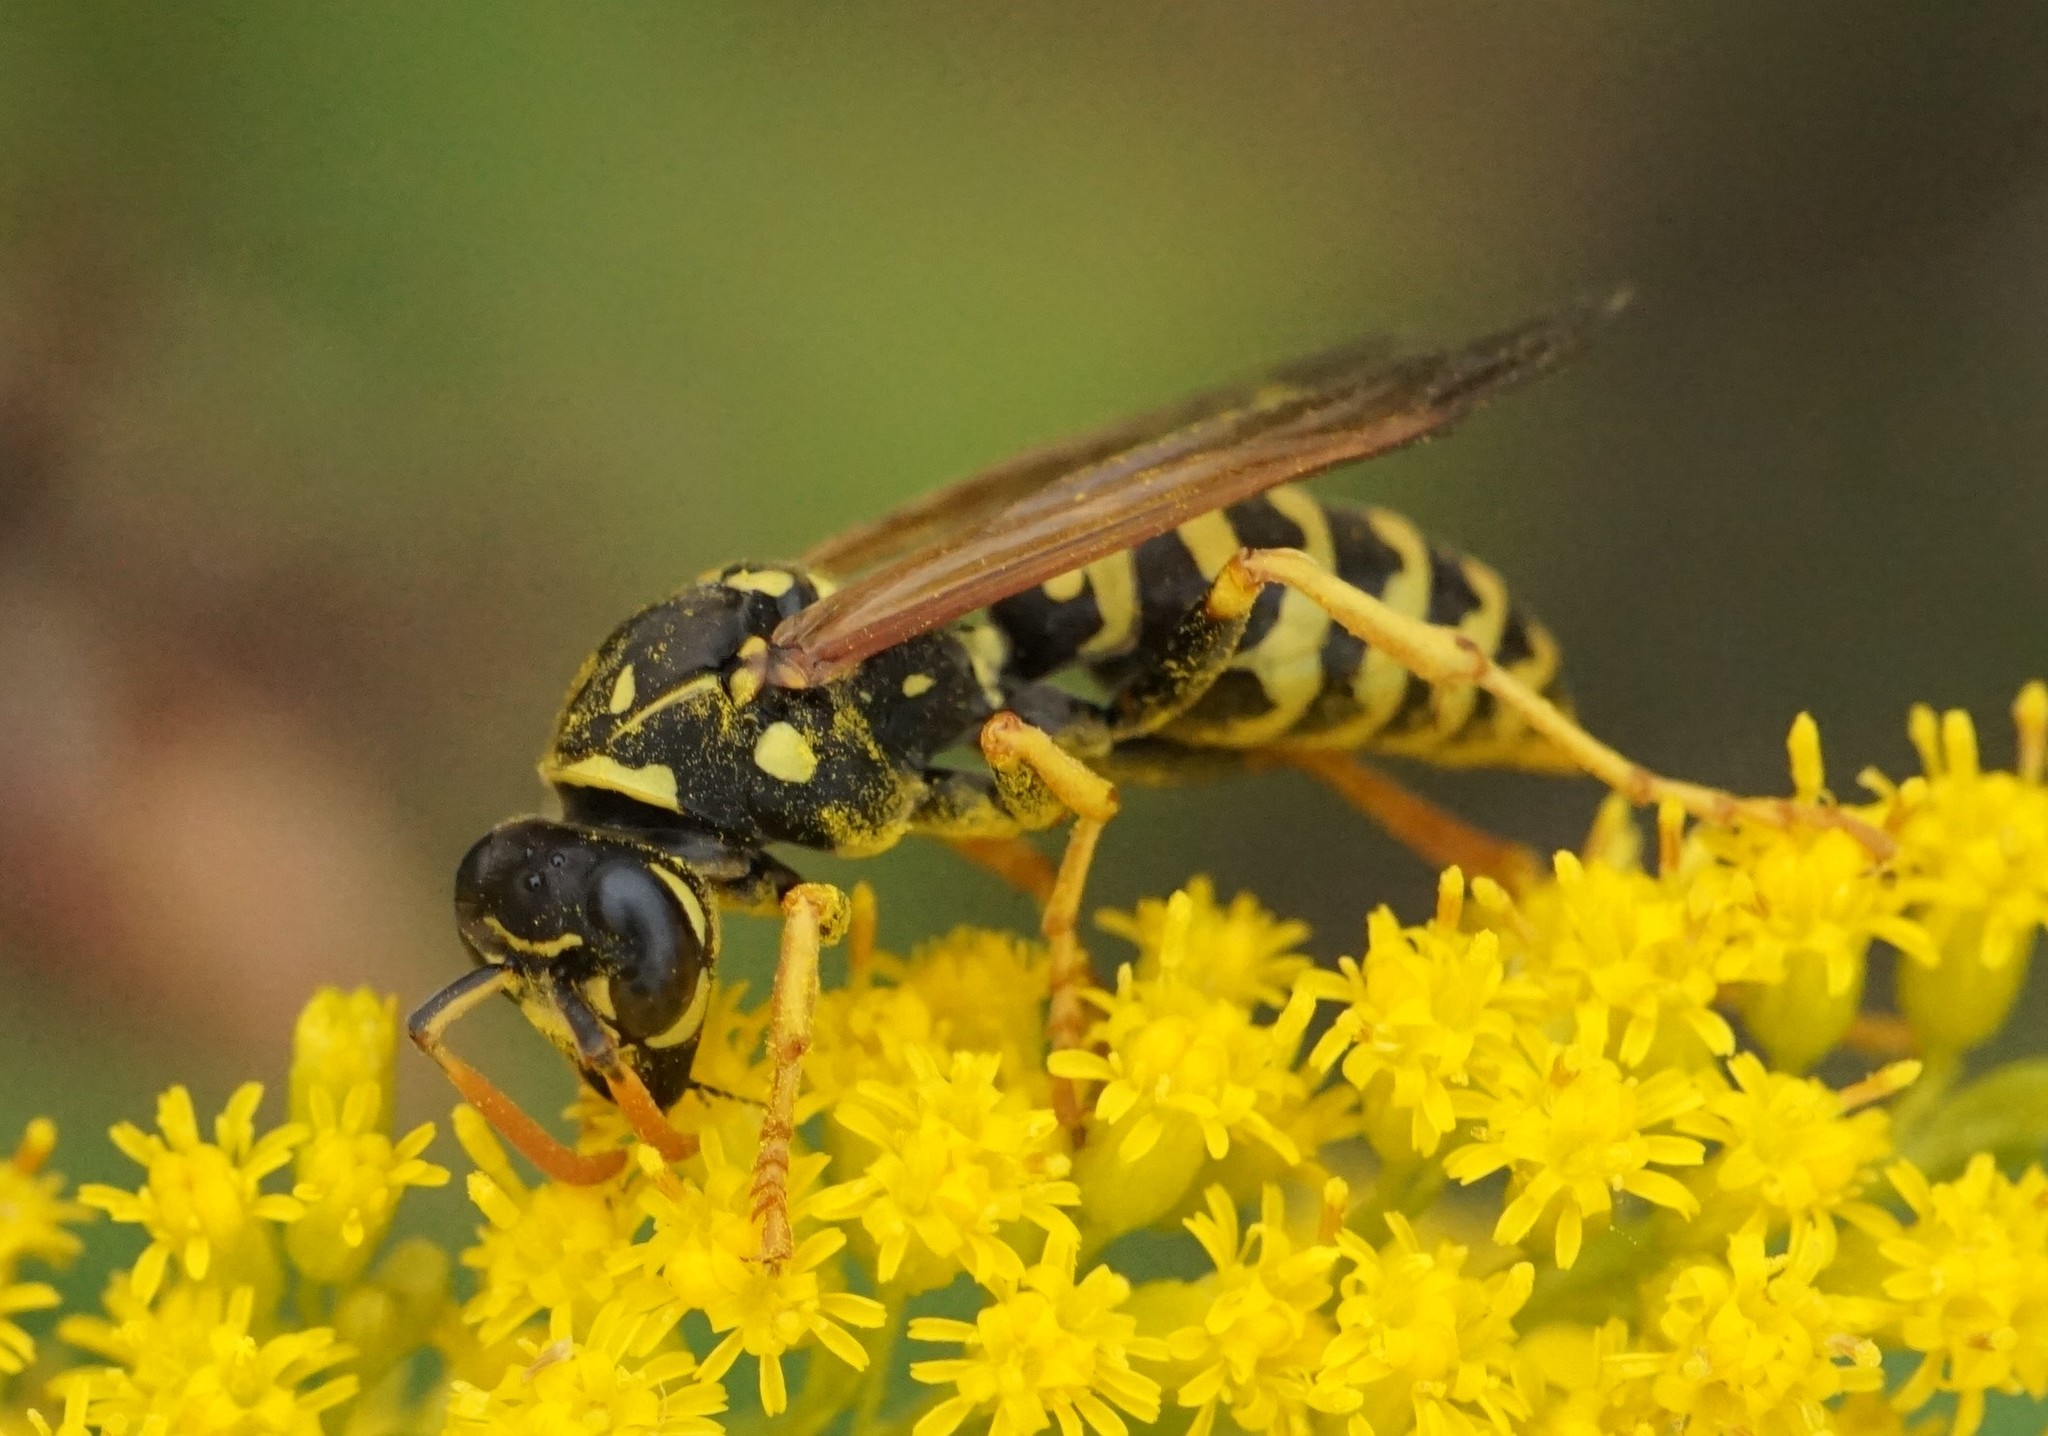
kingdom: Animalia
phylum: Arthropoda
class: Insecta
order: Hymenoptera
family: Eumenidae
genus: Polistes
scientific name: Polistes dominula
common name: Paper wasp
